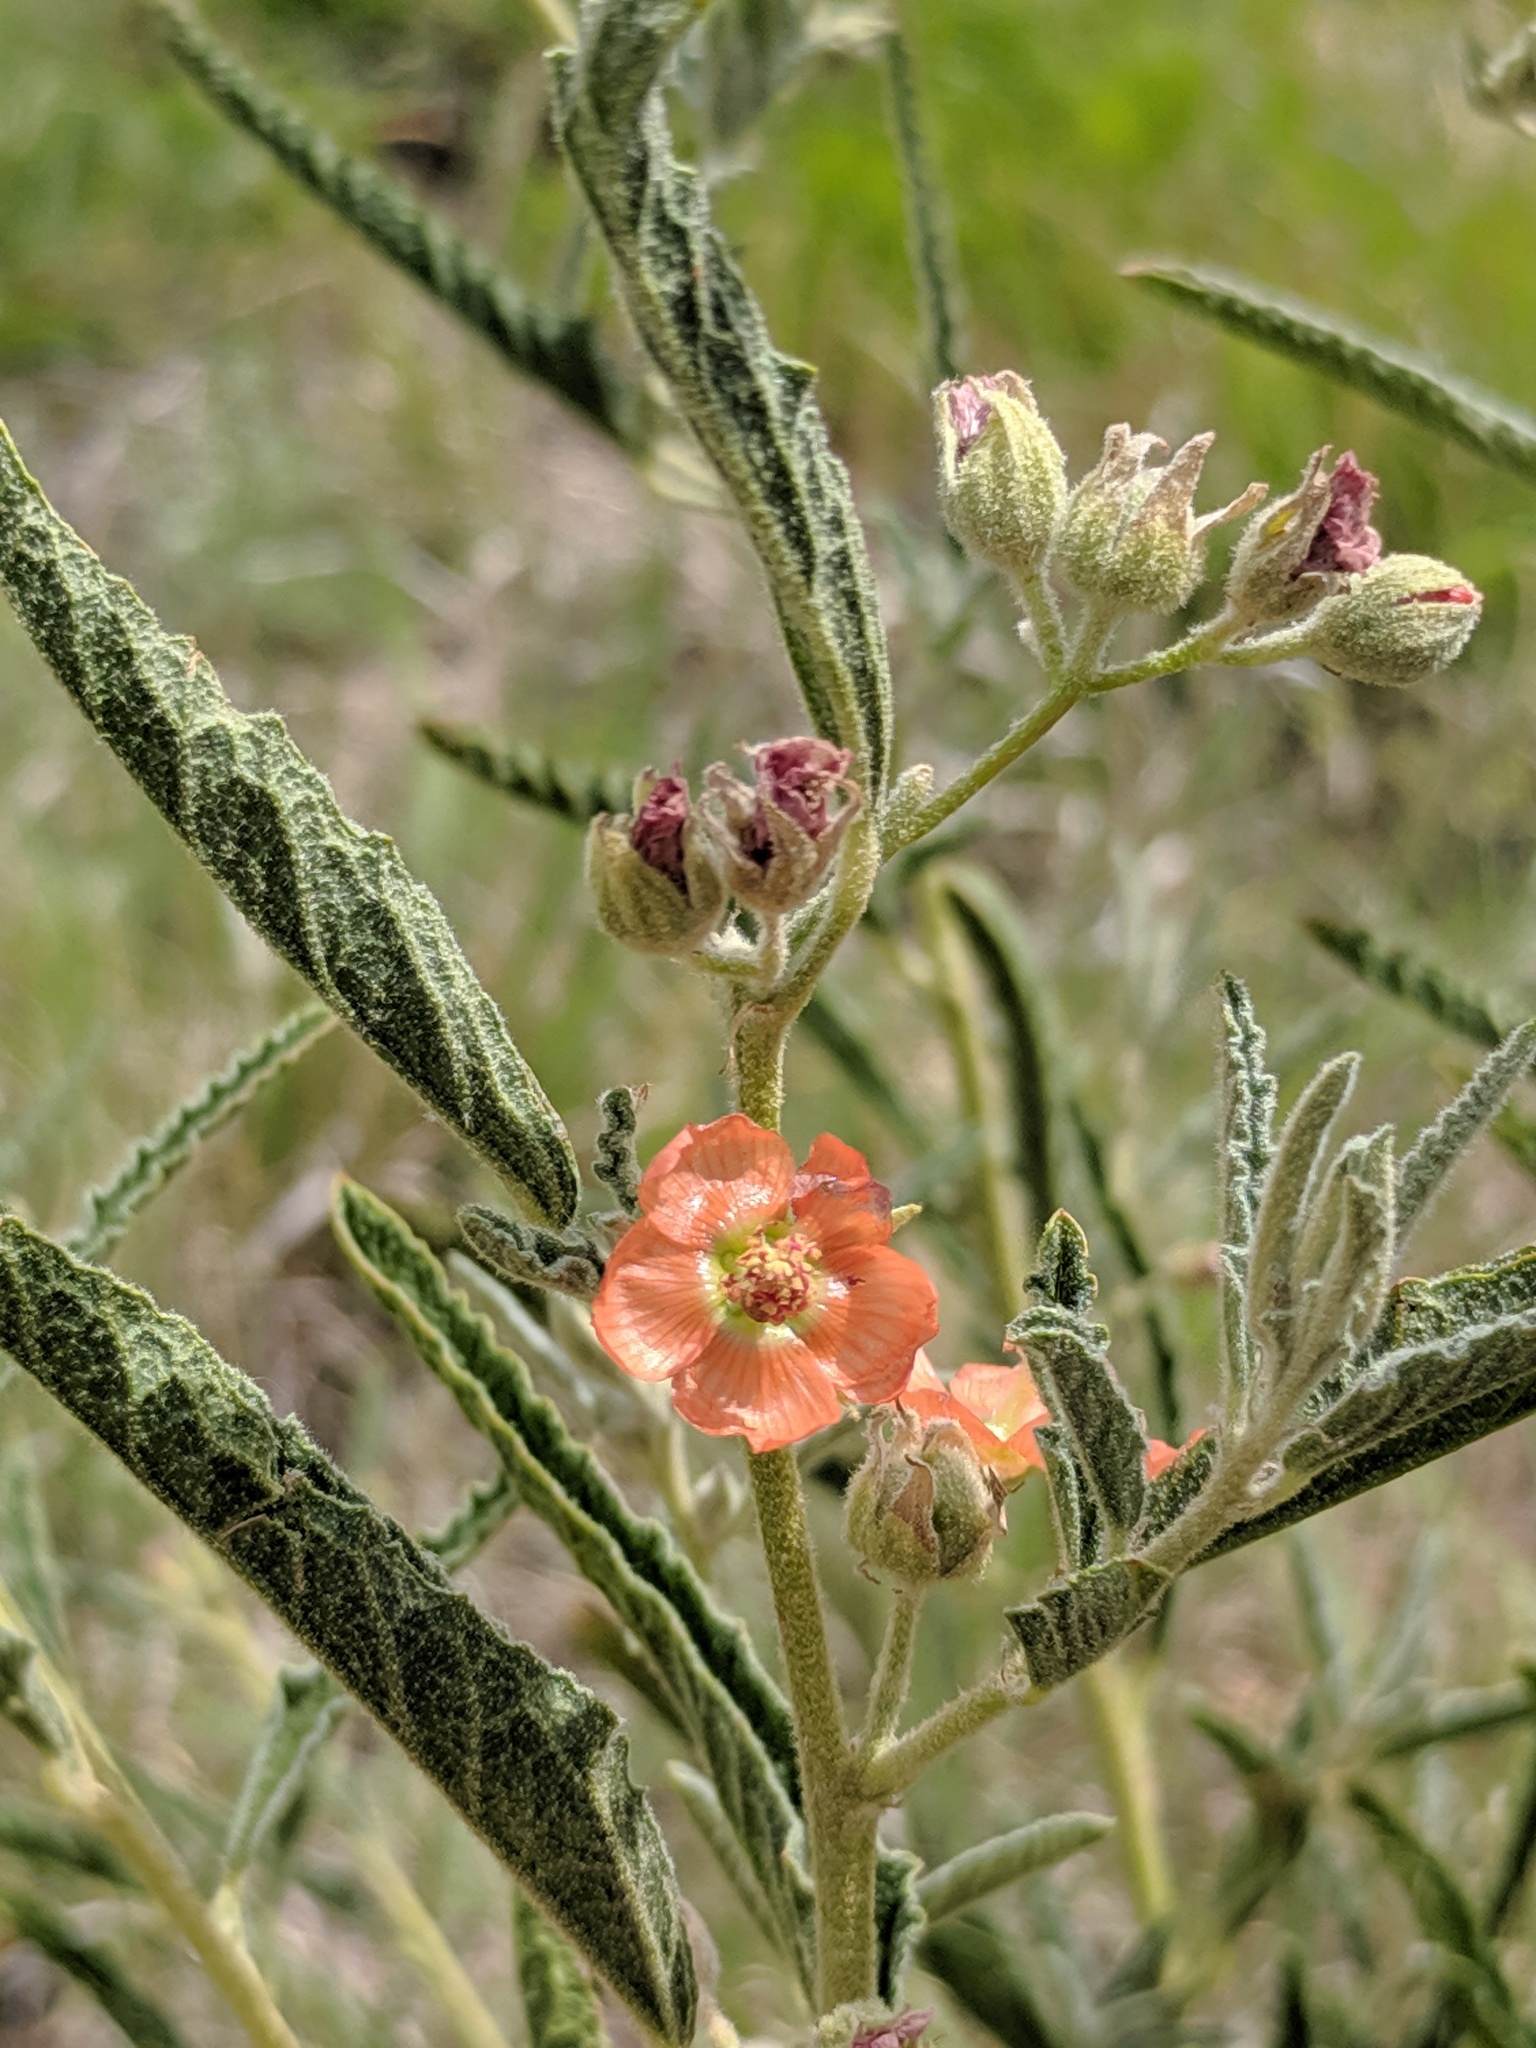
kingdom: Plantae
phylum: Tracheophyta
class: Magnoliopsida
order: Malvales
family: Malvaceae
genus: Sphaeralcea
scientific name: Sphaeralcea angustifolia
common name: Copper globe-mallow
